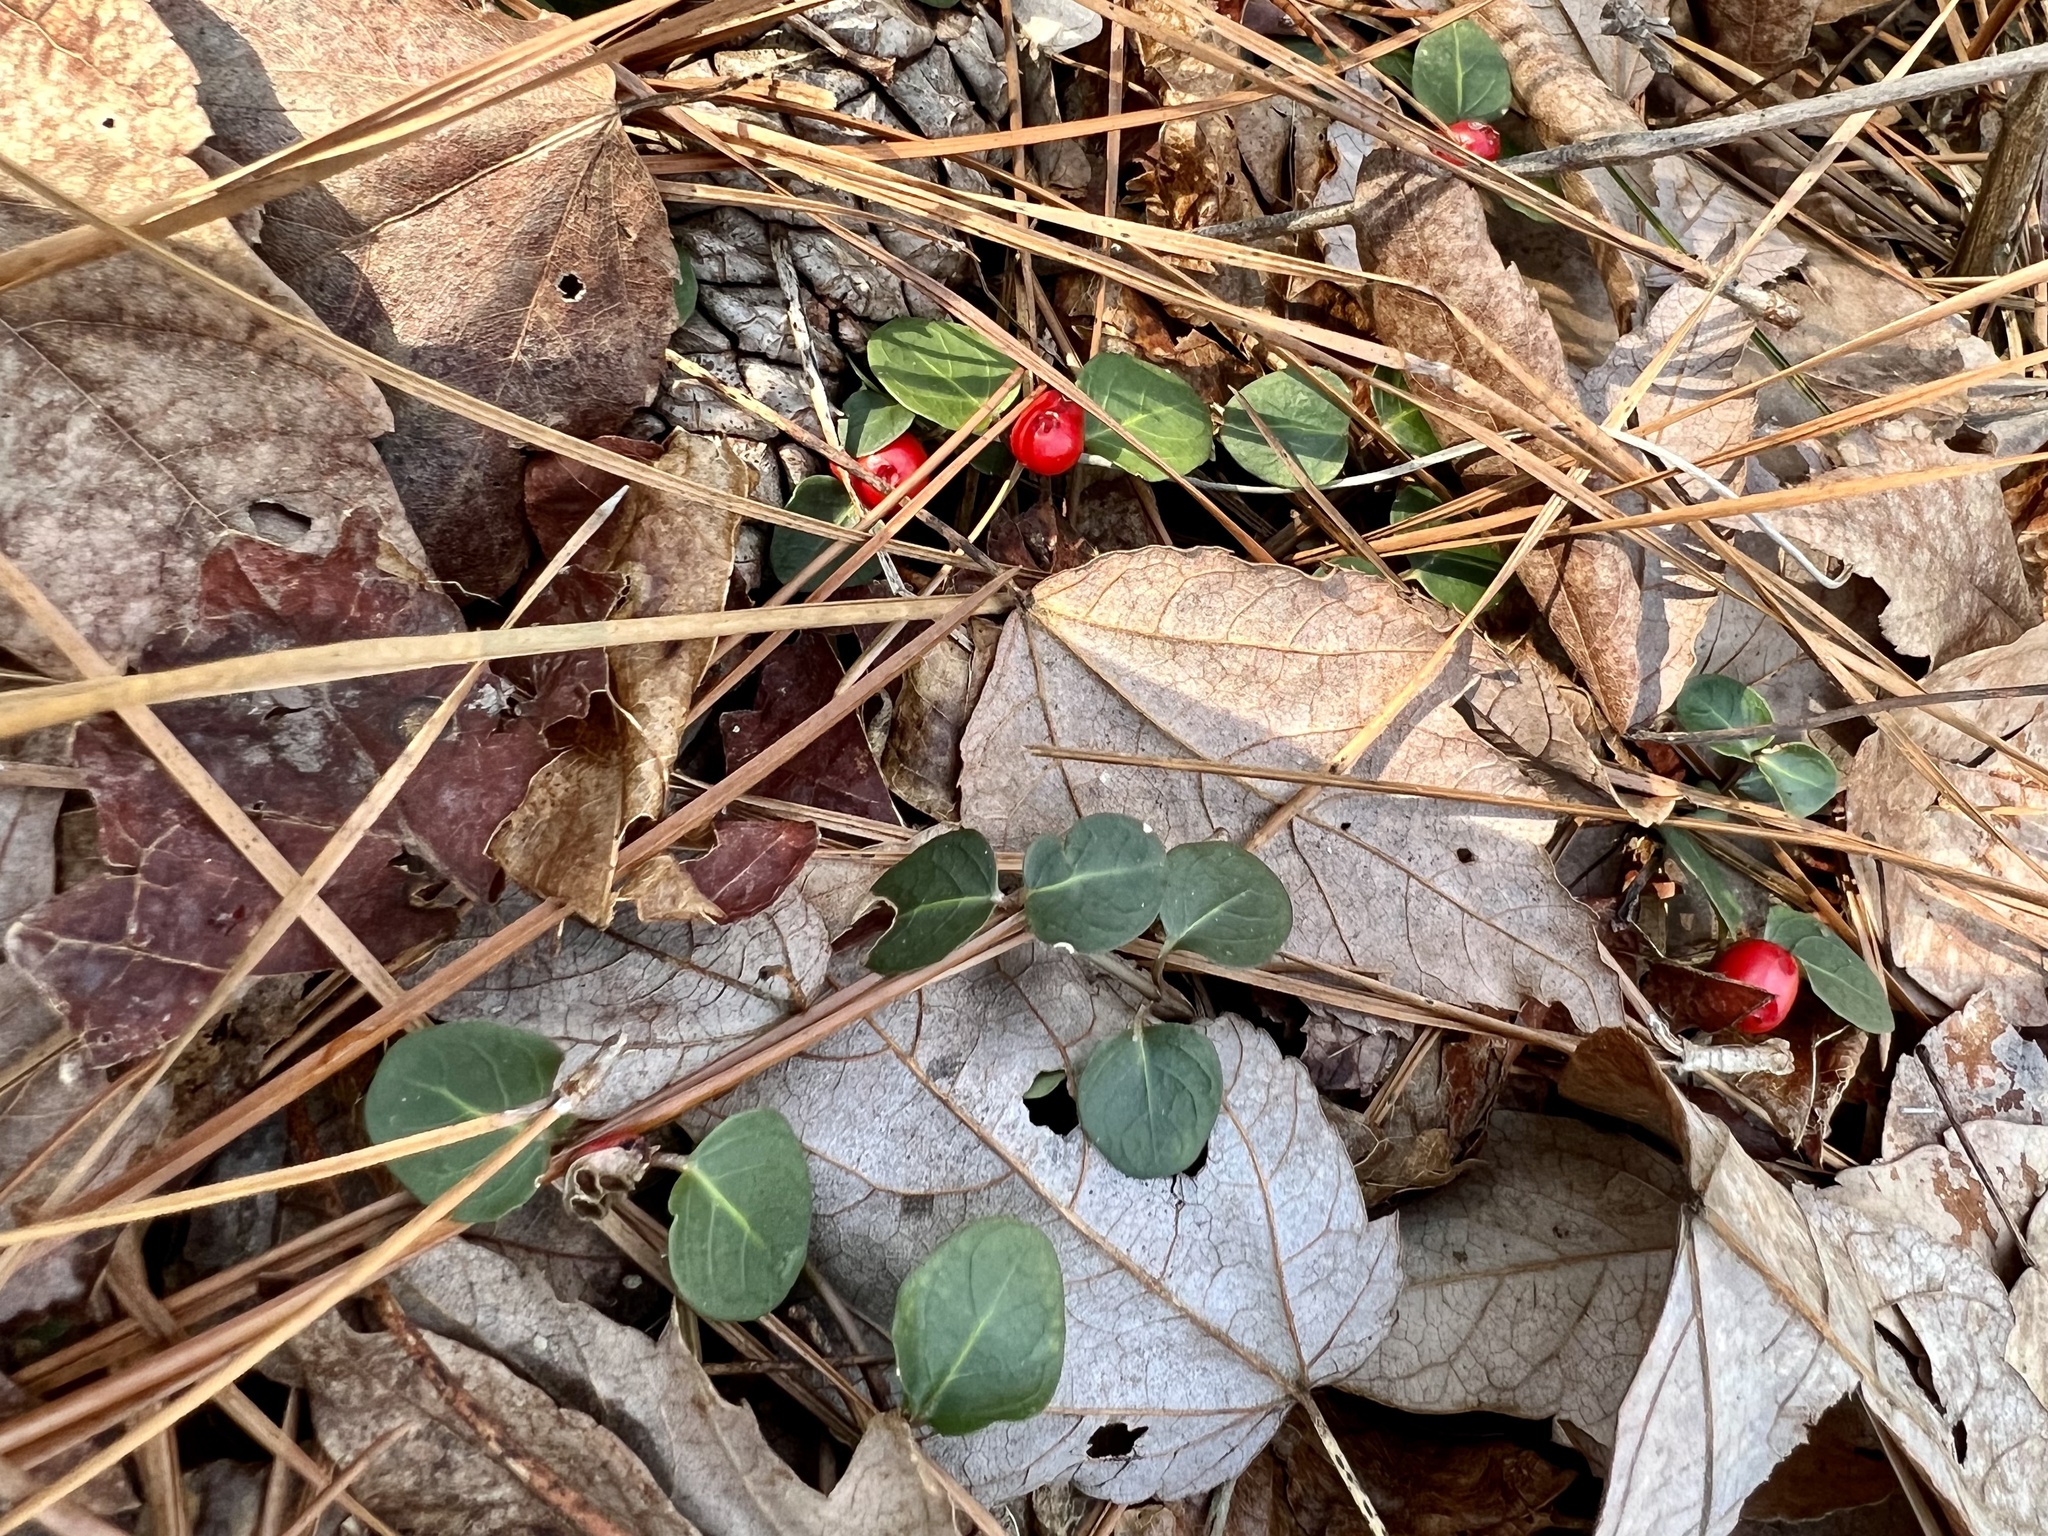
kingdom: Plantae
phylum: Tracheophyta
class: Magnoliopsida
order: Gentianales
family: Rubiaceae
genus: Mitchella
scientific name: Mitchella repens
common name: Partridge-berry
